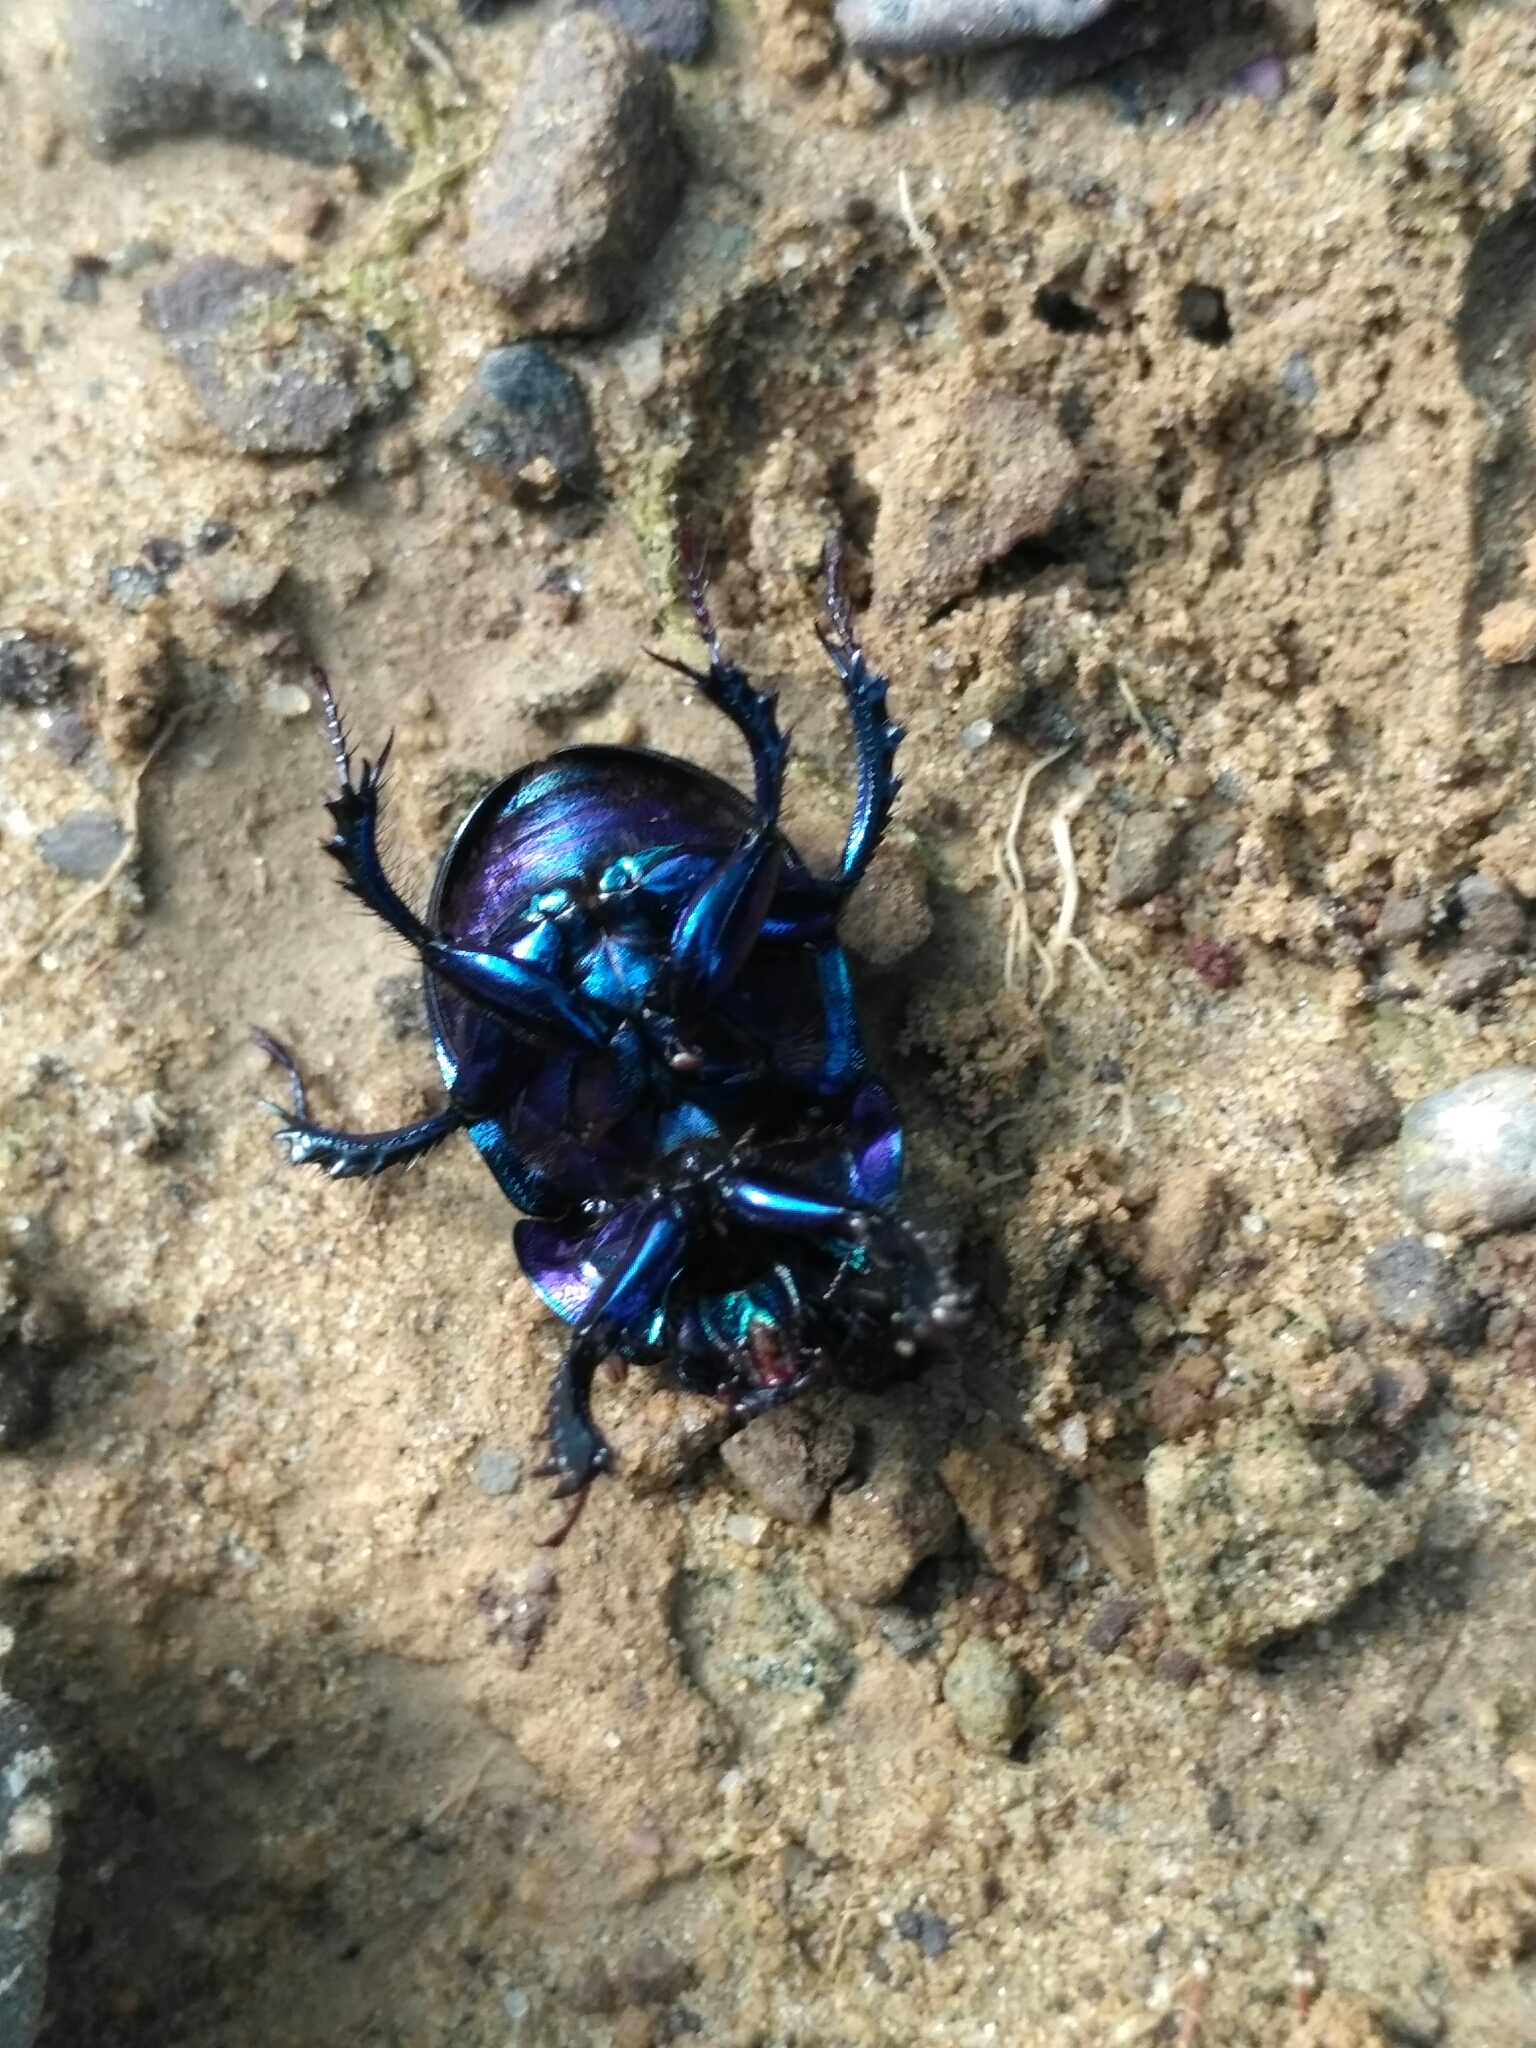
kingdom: Animalia
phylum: Arthropoda
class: Insecta
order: Coleoptera
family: Geotrupidae
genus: Anoplotrupes
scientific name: Anoplotrupes stercorosus
